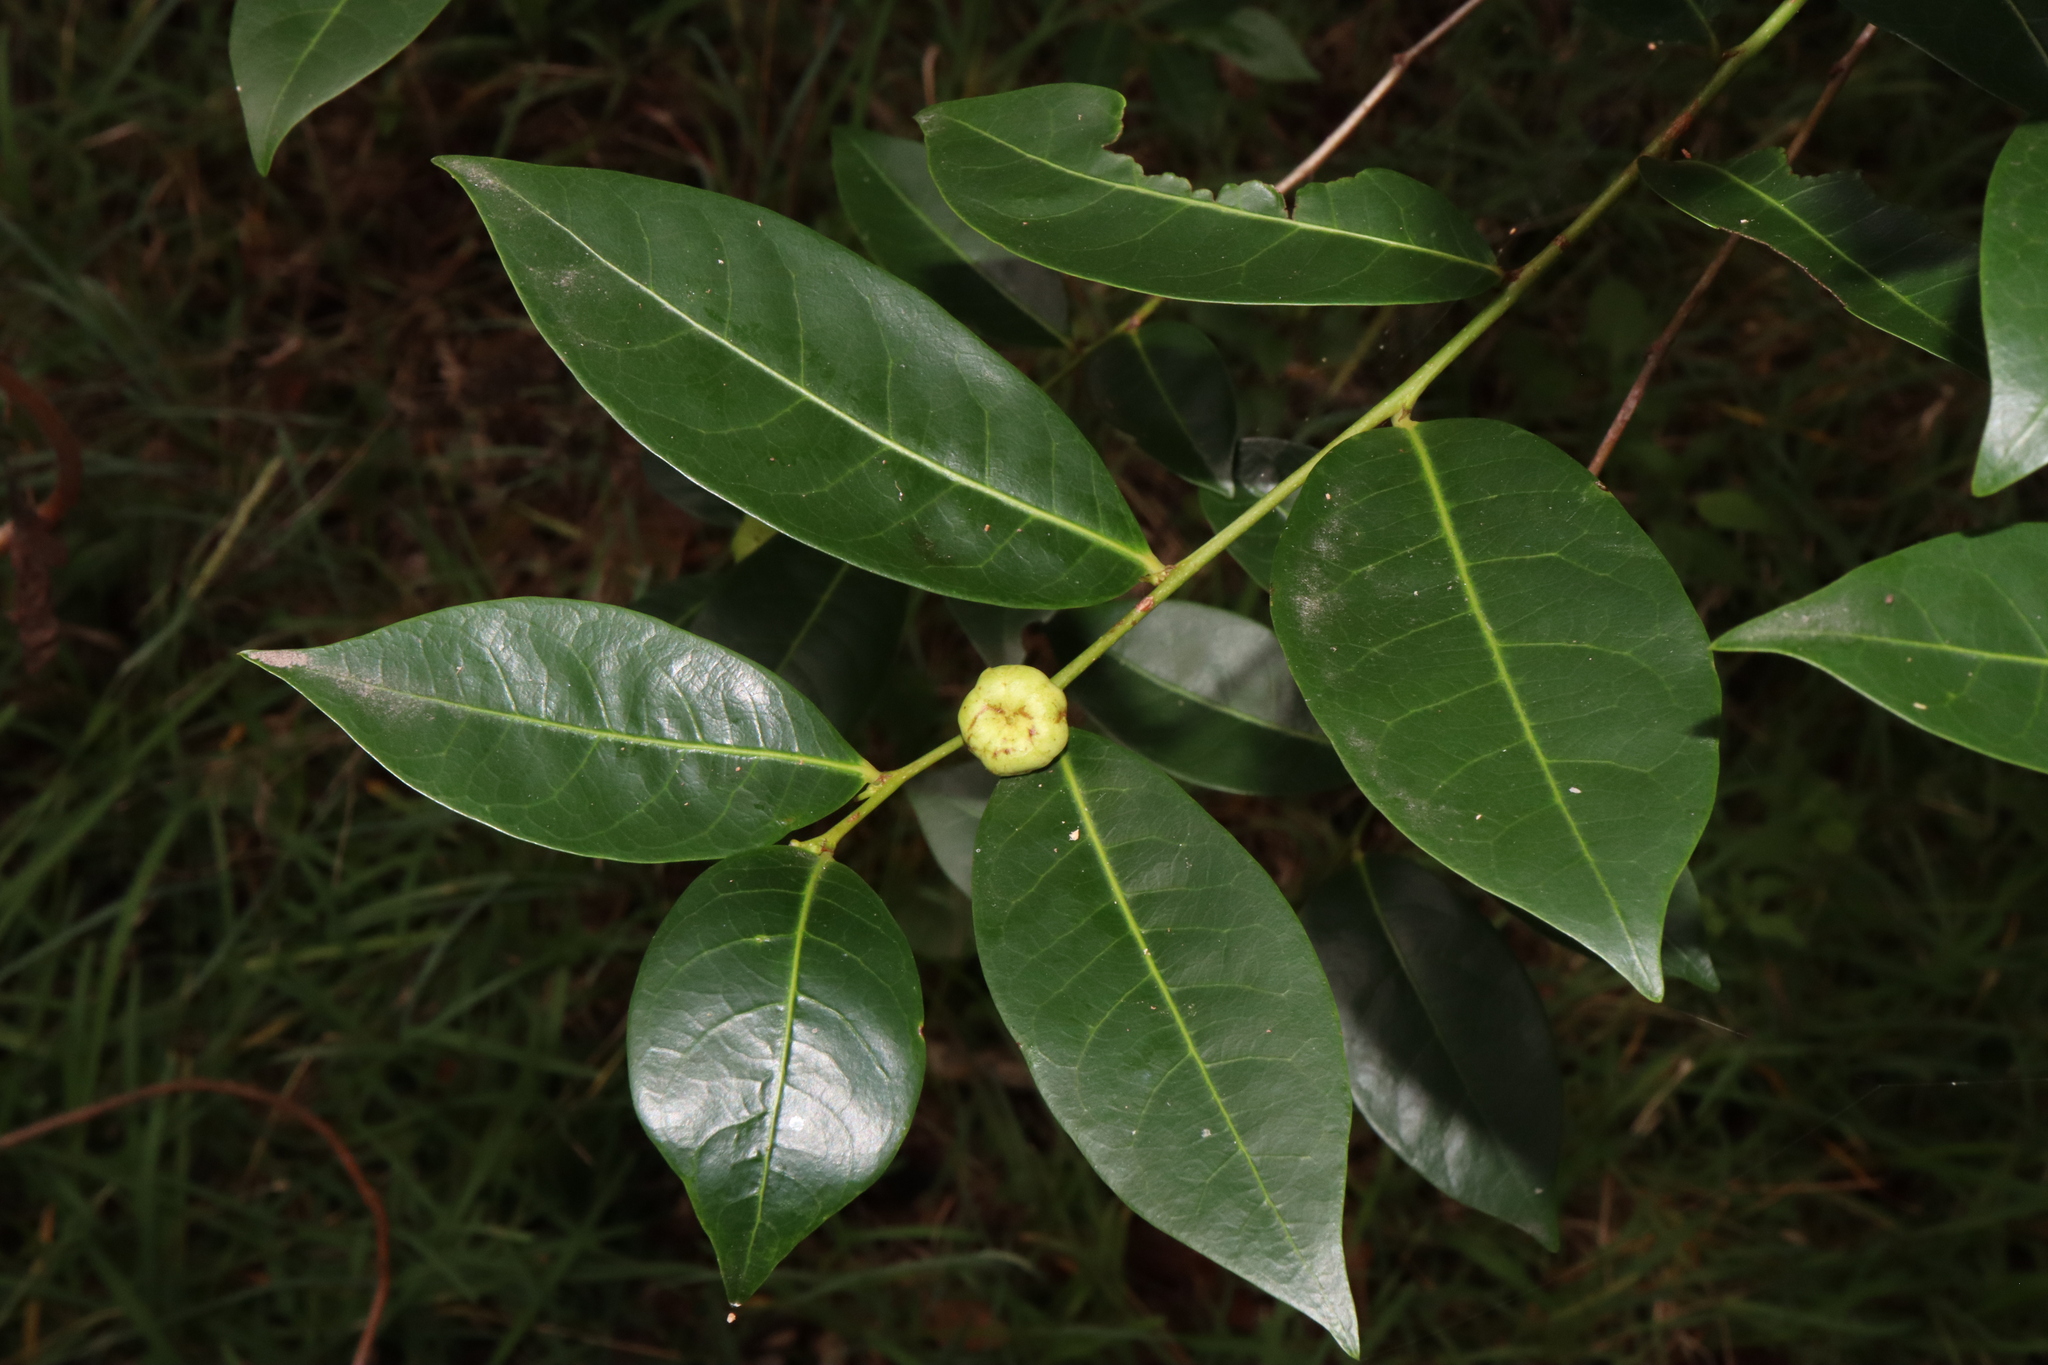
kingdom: Plantae
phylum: Tracheophyta
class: Magnoliopsida
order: Malpighiales
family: Phyllanthaceae
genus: Glochidion
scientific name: Glochidion ferdinandi
